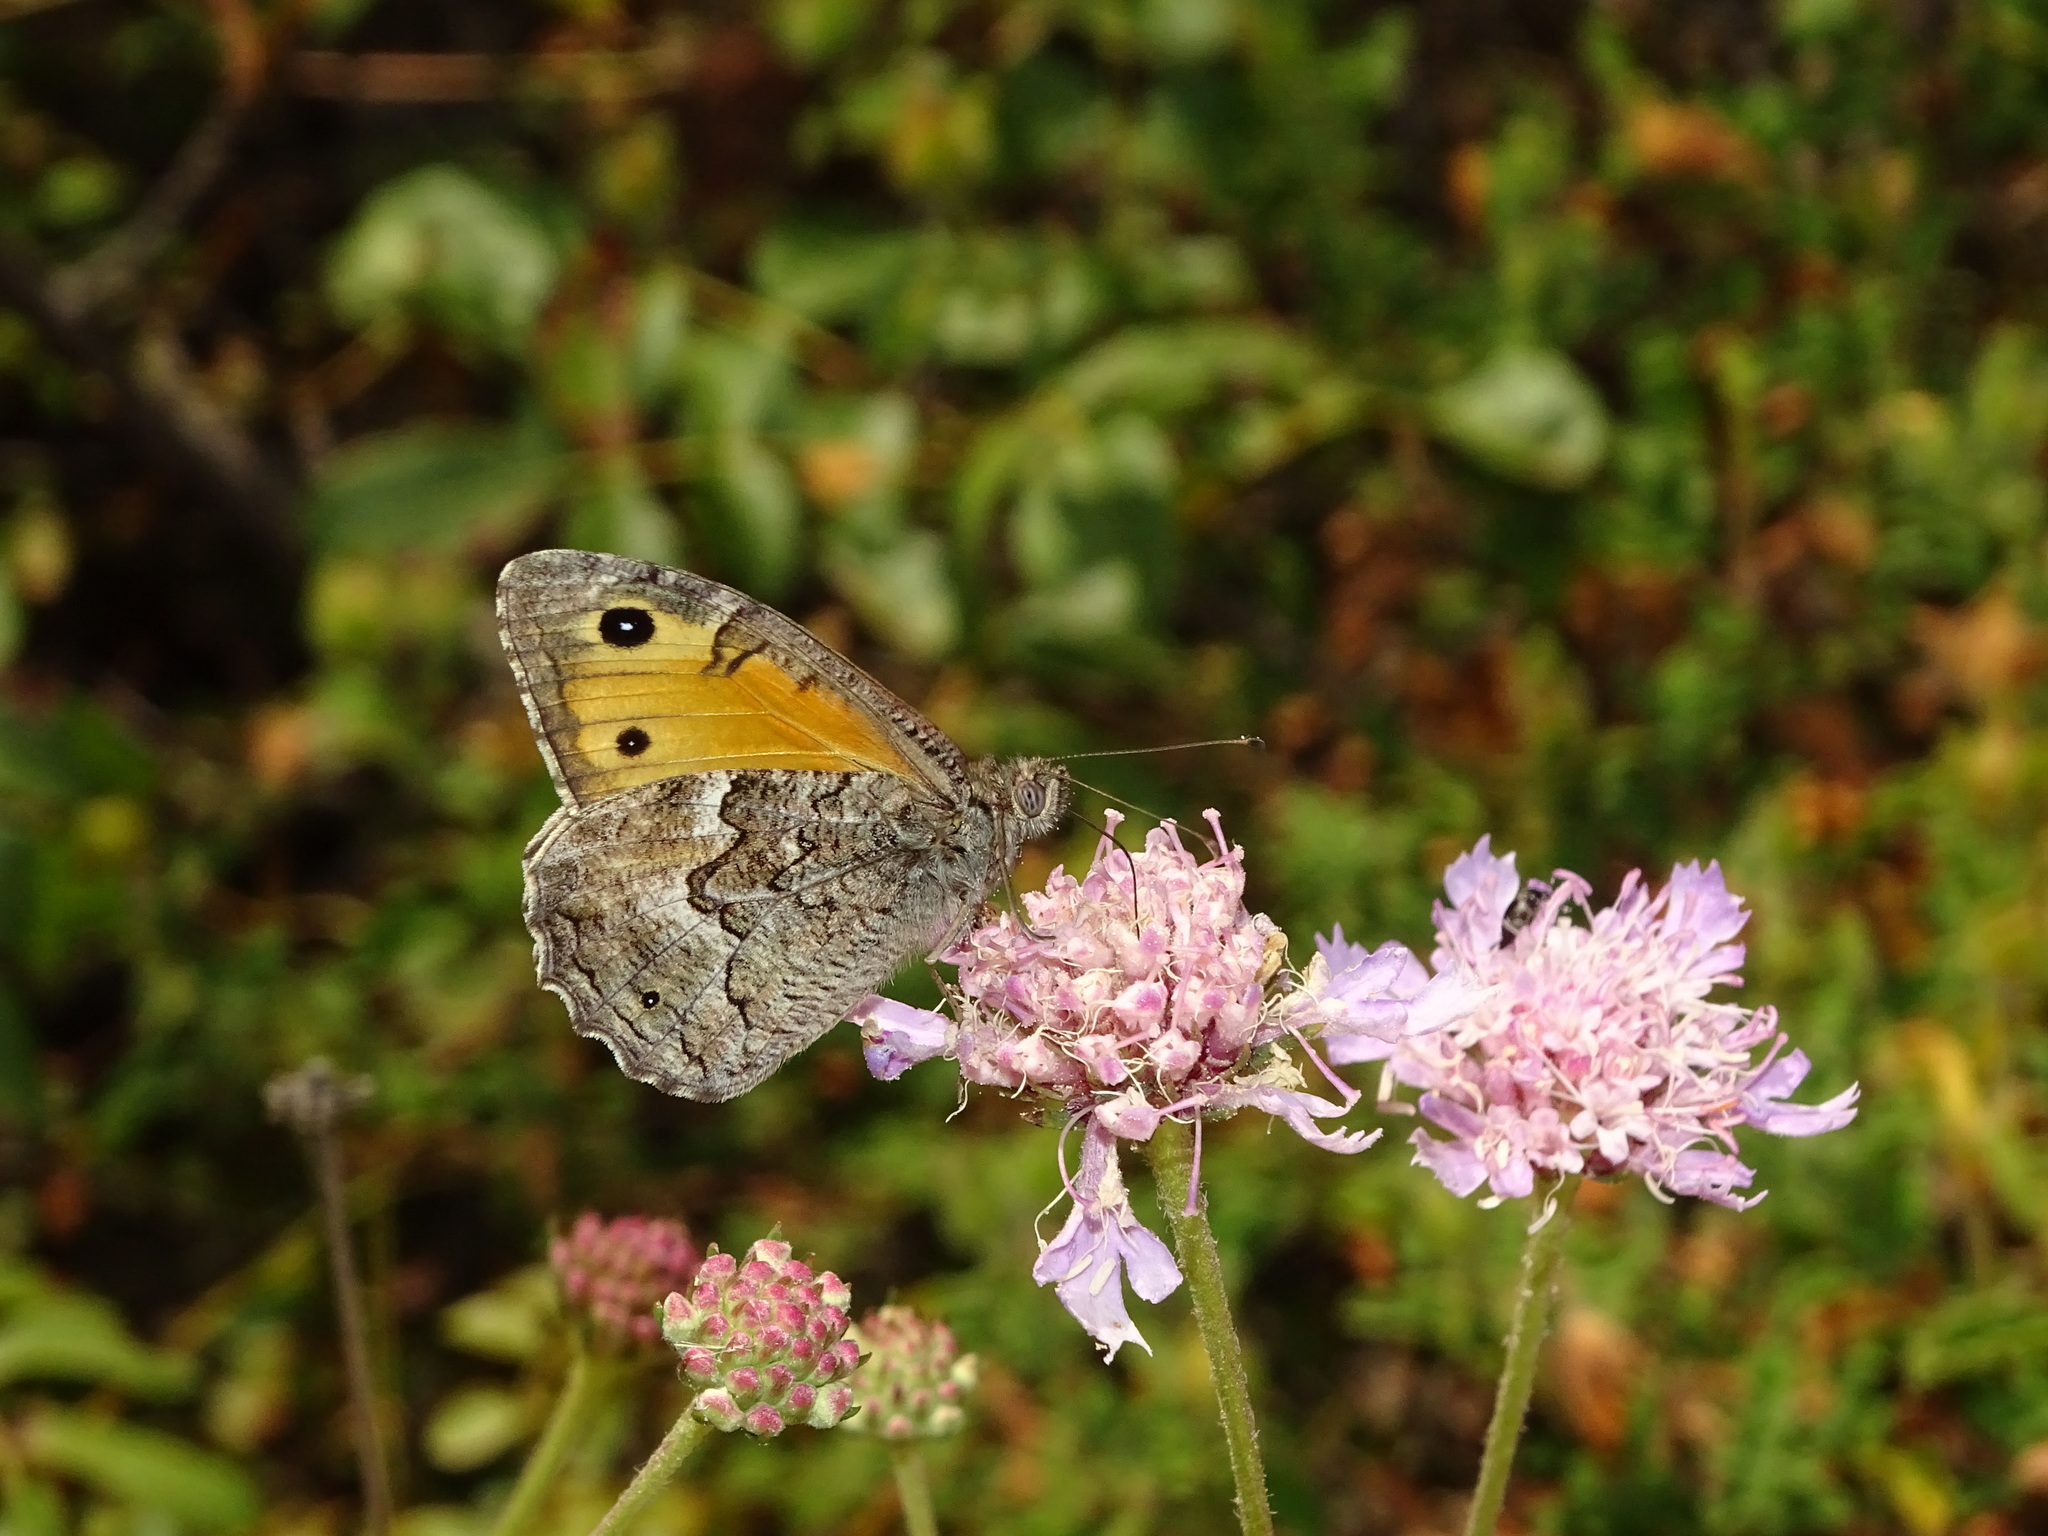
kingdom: Animalia
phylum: Arthropoda
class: Insecta
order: Lepidoptera
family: Nymphalidae
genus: Hipparchia
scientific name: Hipparchia cypriensis
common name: Cyprus grayling
